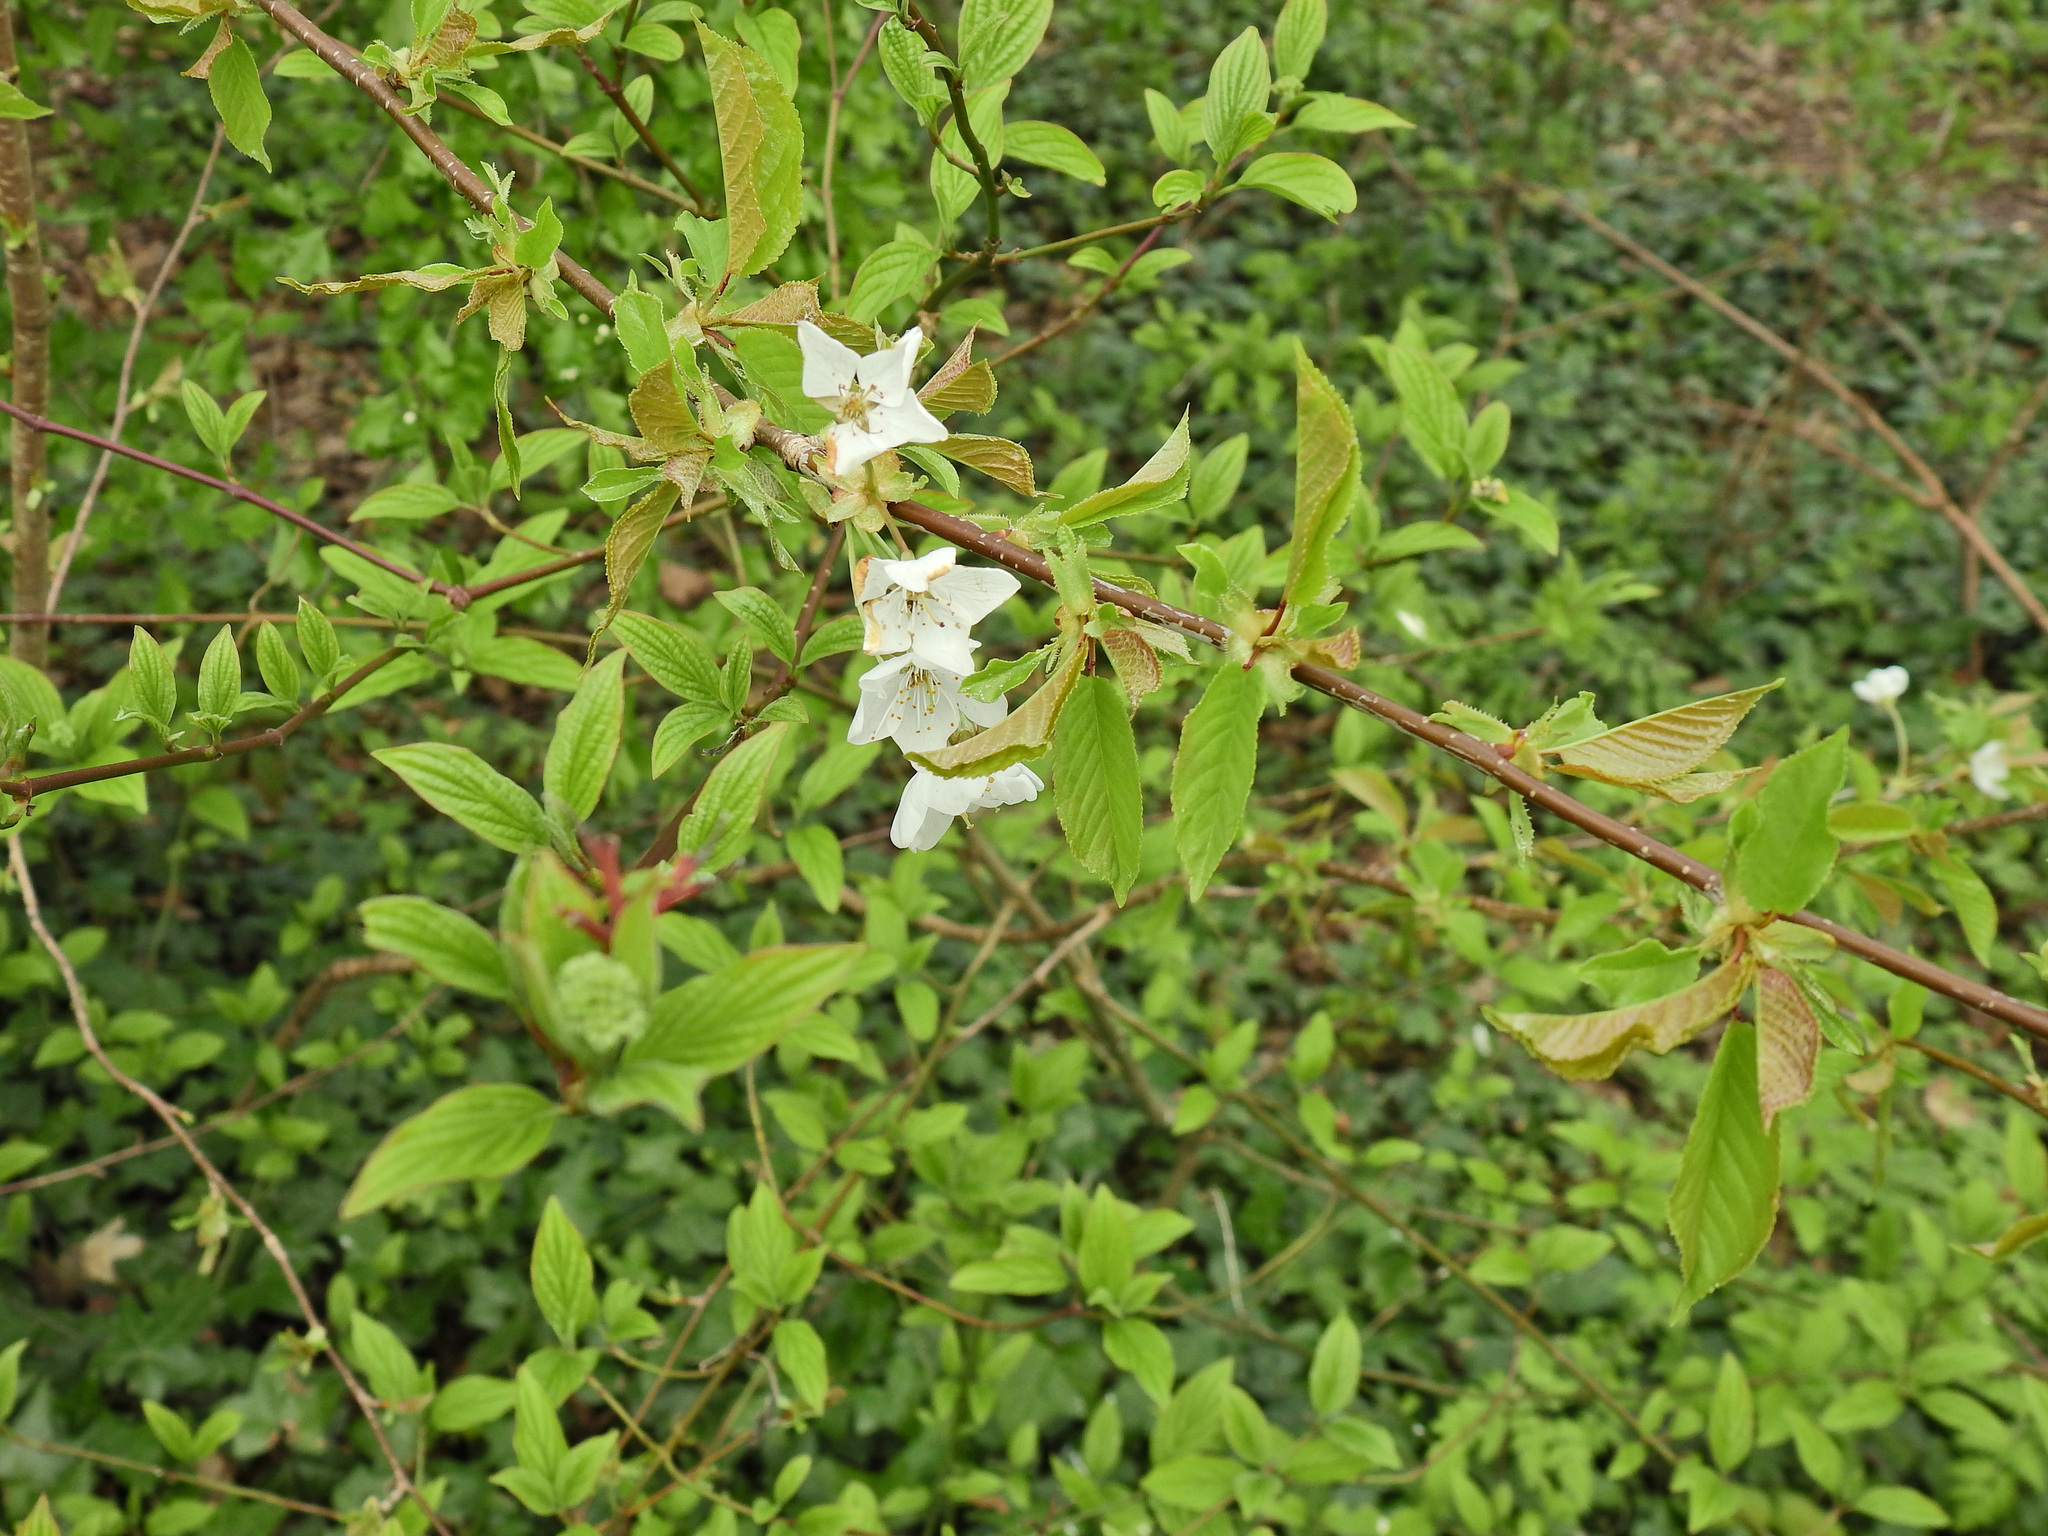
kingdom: Plantae
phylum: Tracheophyta
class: Magnoliopsida
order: Rosales
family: Rosaceae
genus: Prunus
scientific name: Prunus avium
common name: Sweet cherry
